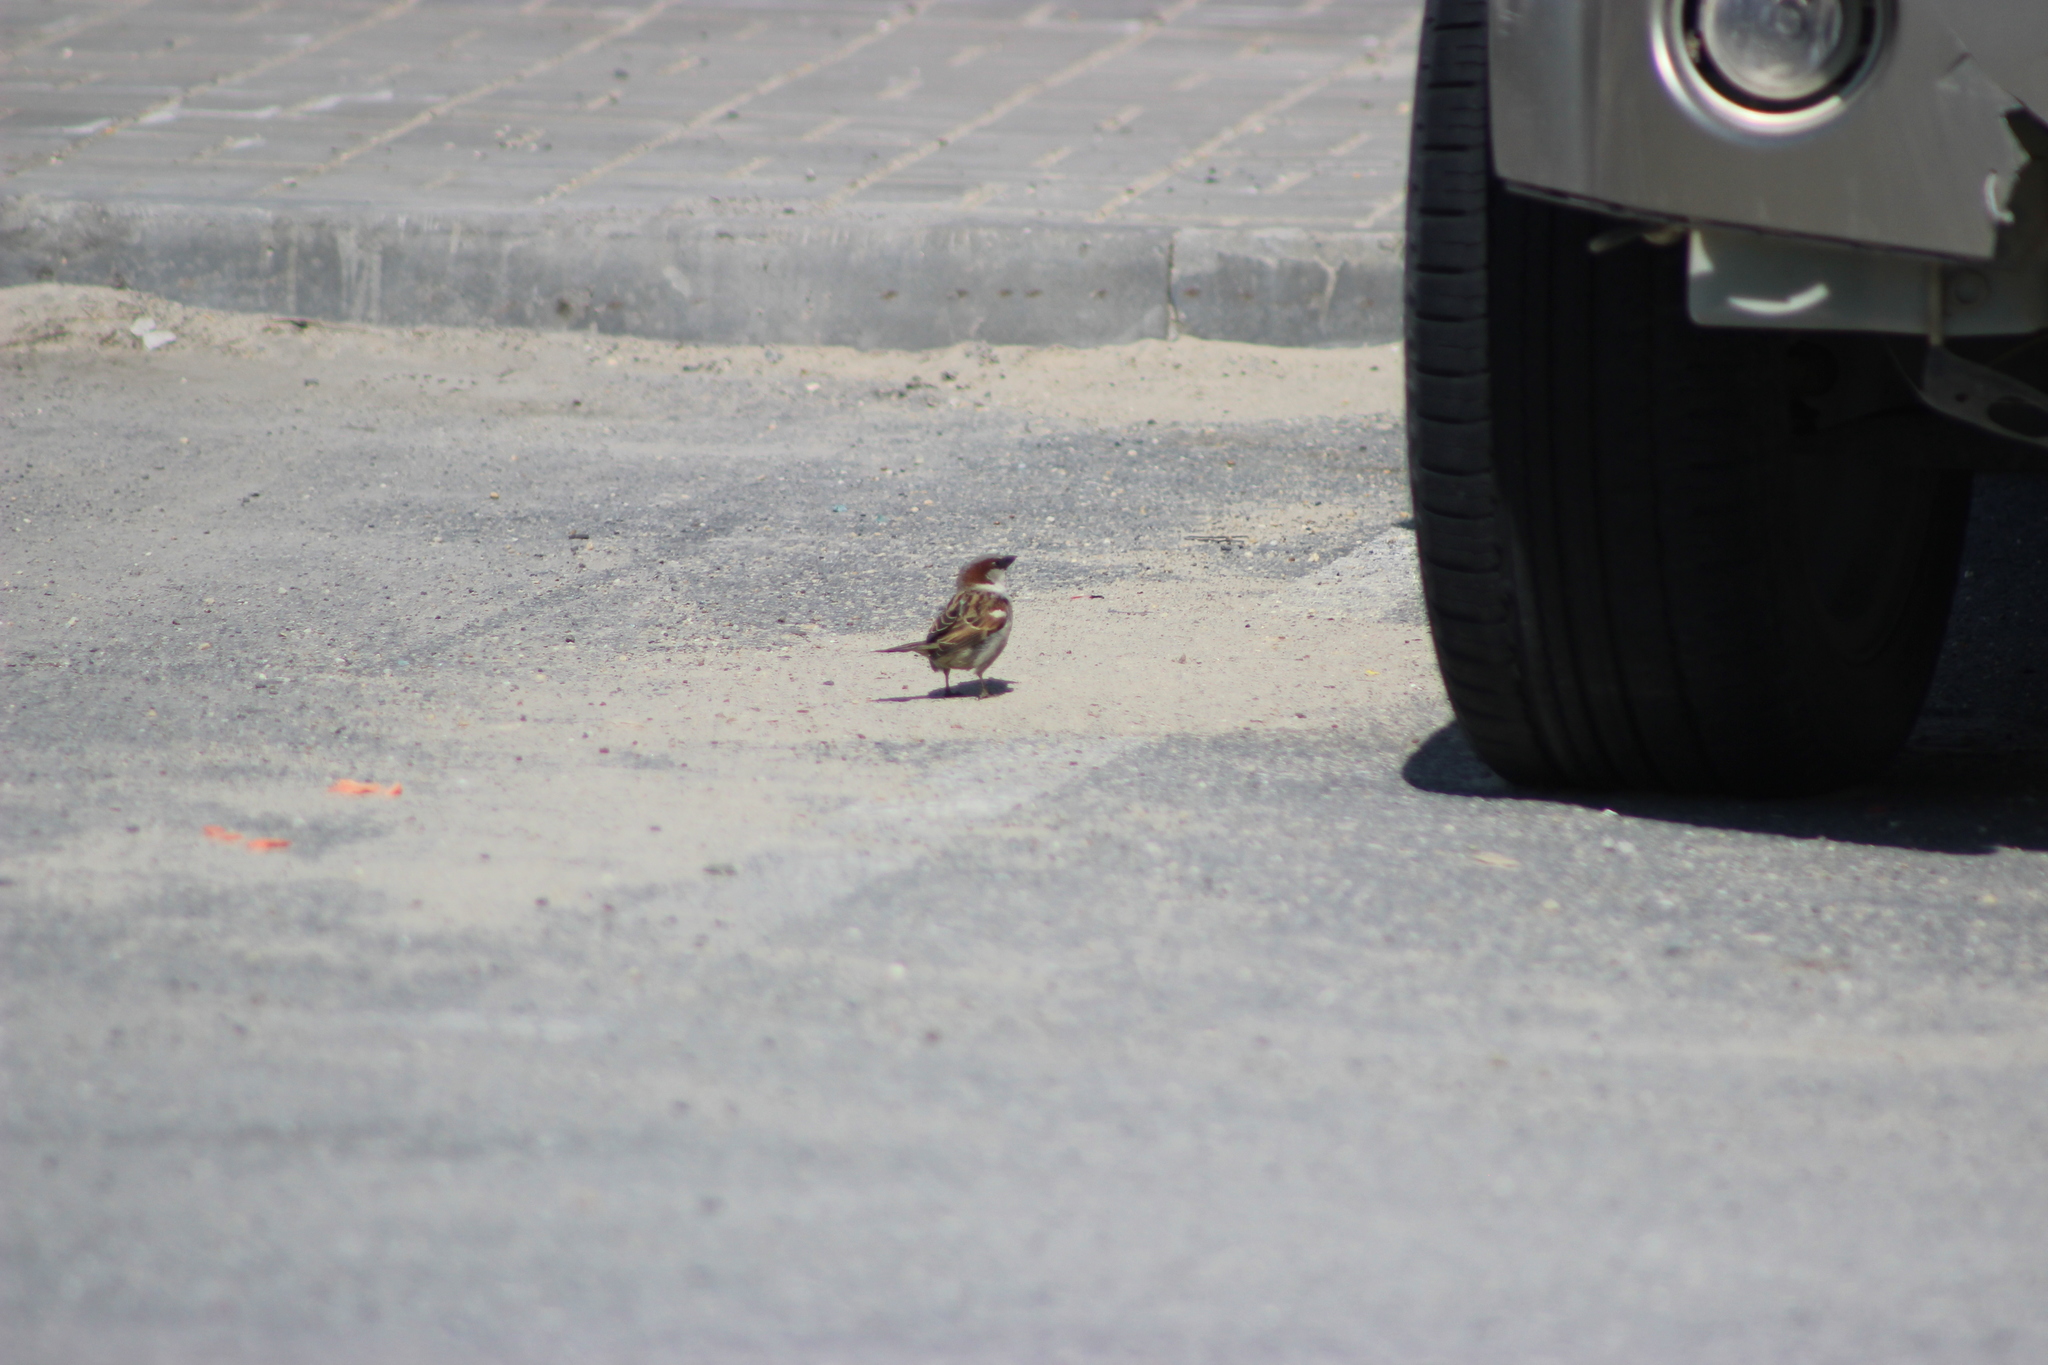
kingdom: Animalia
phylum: Chordata
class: Aves
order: Passeriformes
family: Passeridae
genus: Passer
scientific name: Passer domesticus
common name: House sparrow
